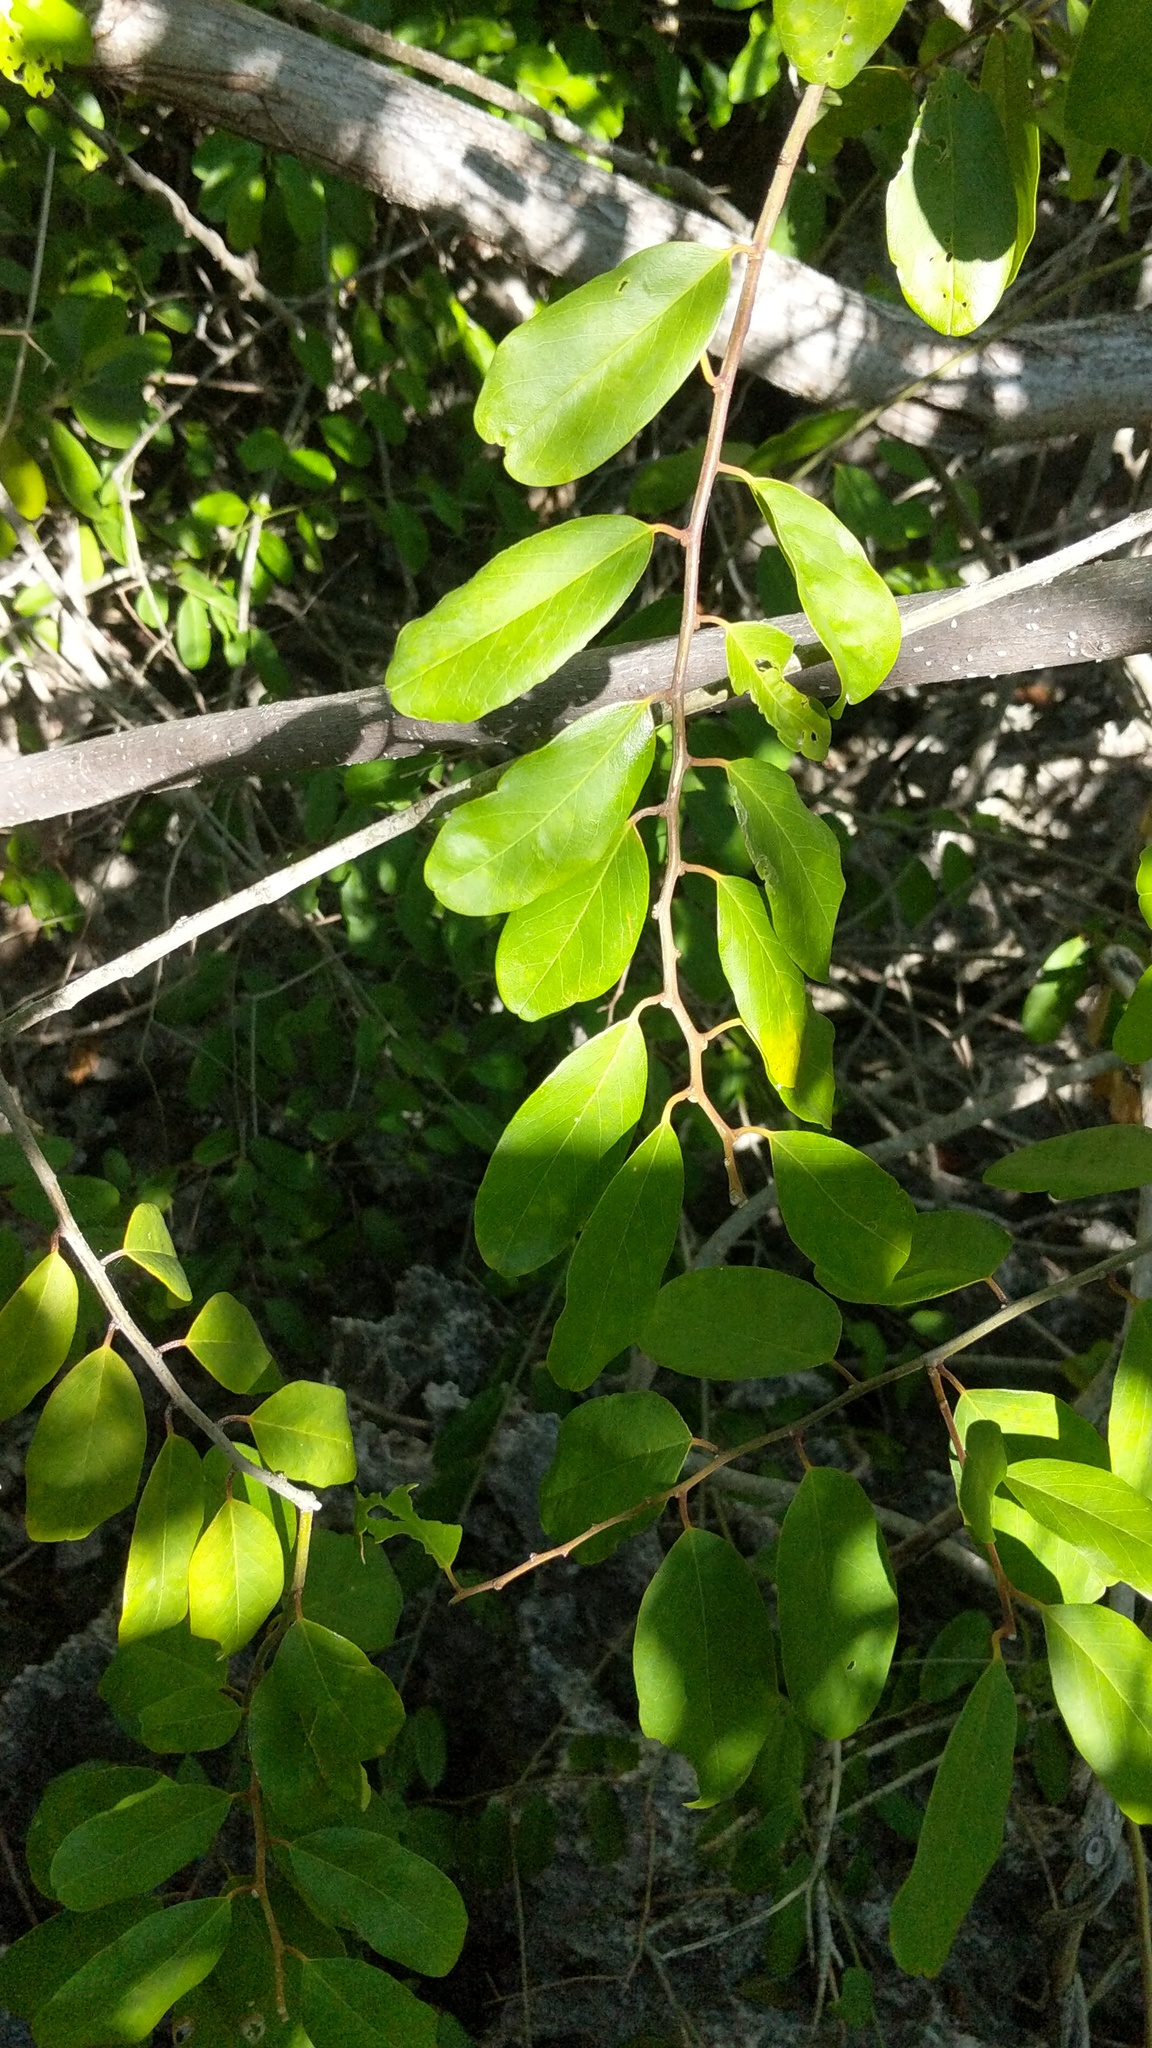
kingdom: Plantae
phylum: Tracheophyta
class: Magnoliopsida
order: Brassicales
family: Capparaceae
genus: Cynophalla
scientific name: Cynophalla flexuosa
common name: Capertree
